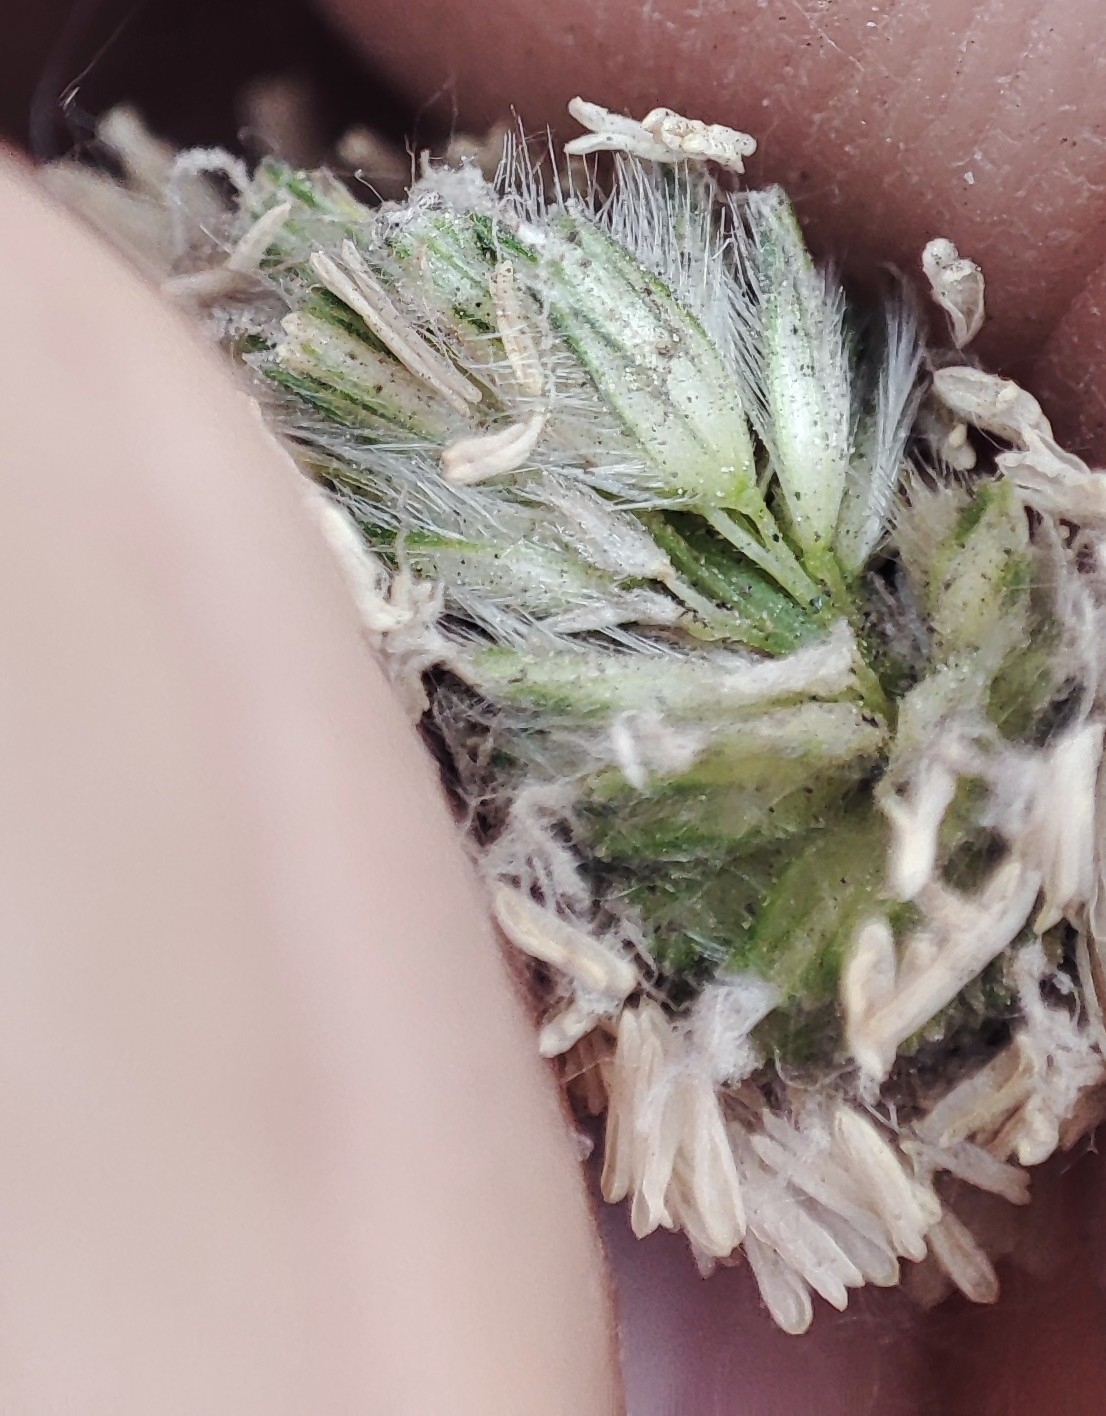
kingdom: Plantae
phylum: Tracheophyta
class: Liliopsida
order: Poales
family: Poaceae
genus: Phleum
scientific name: Phleum pratense
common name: Timothy grass
